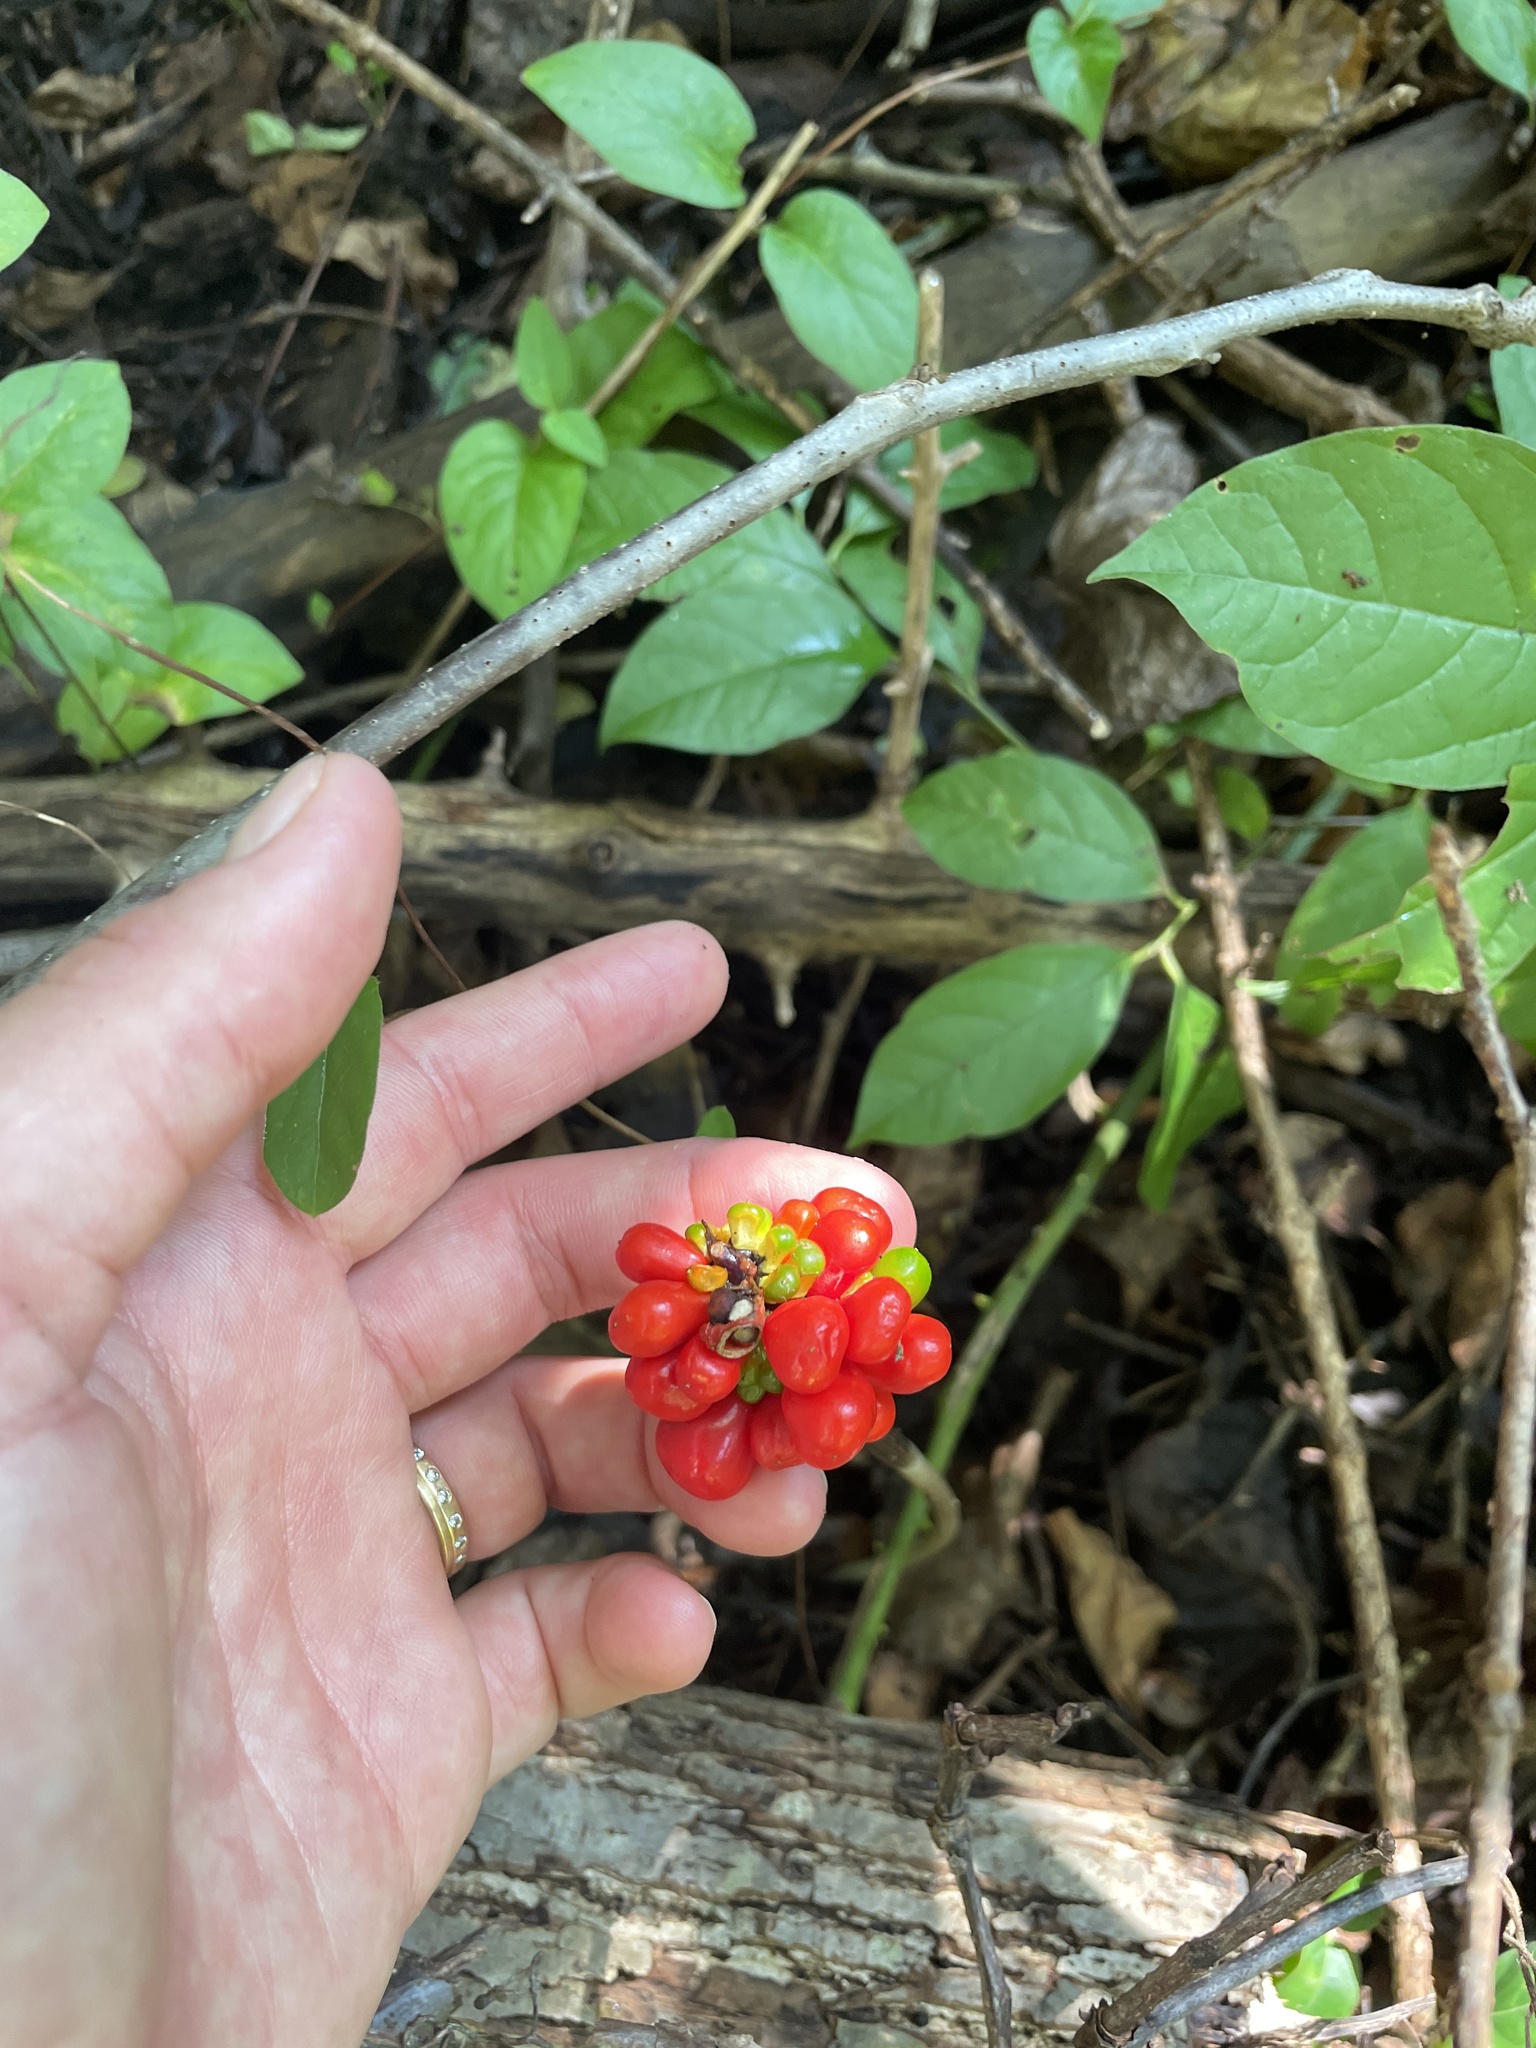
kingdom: Plantae
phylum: Tracheophyta
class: Liliopsida
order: Alismatales
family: Araceae
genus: Arisaema
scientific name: Arisaema triphyllum
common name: Jack-in-the-pulpit
